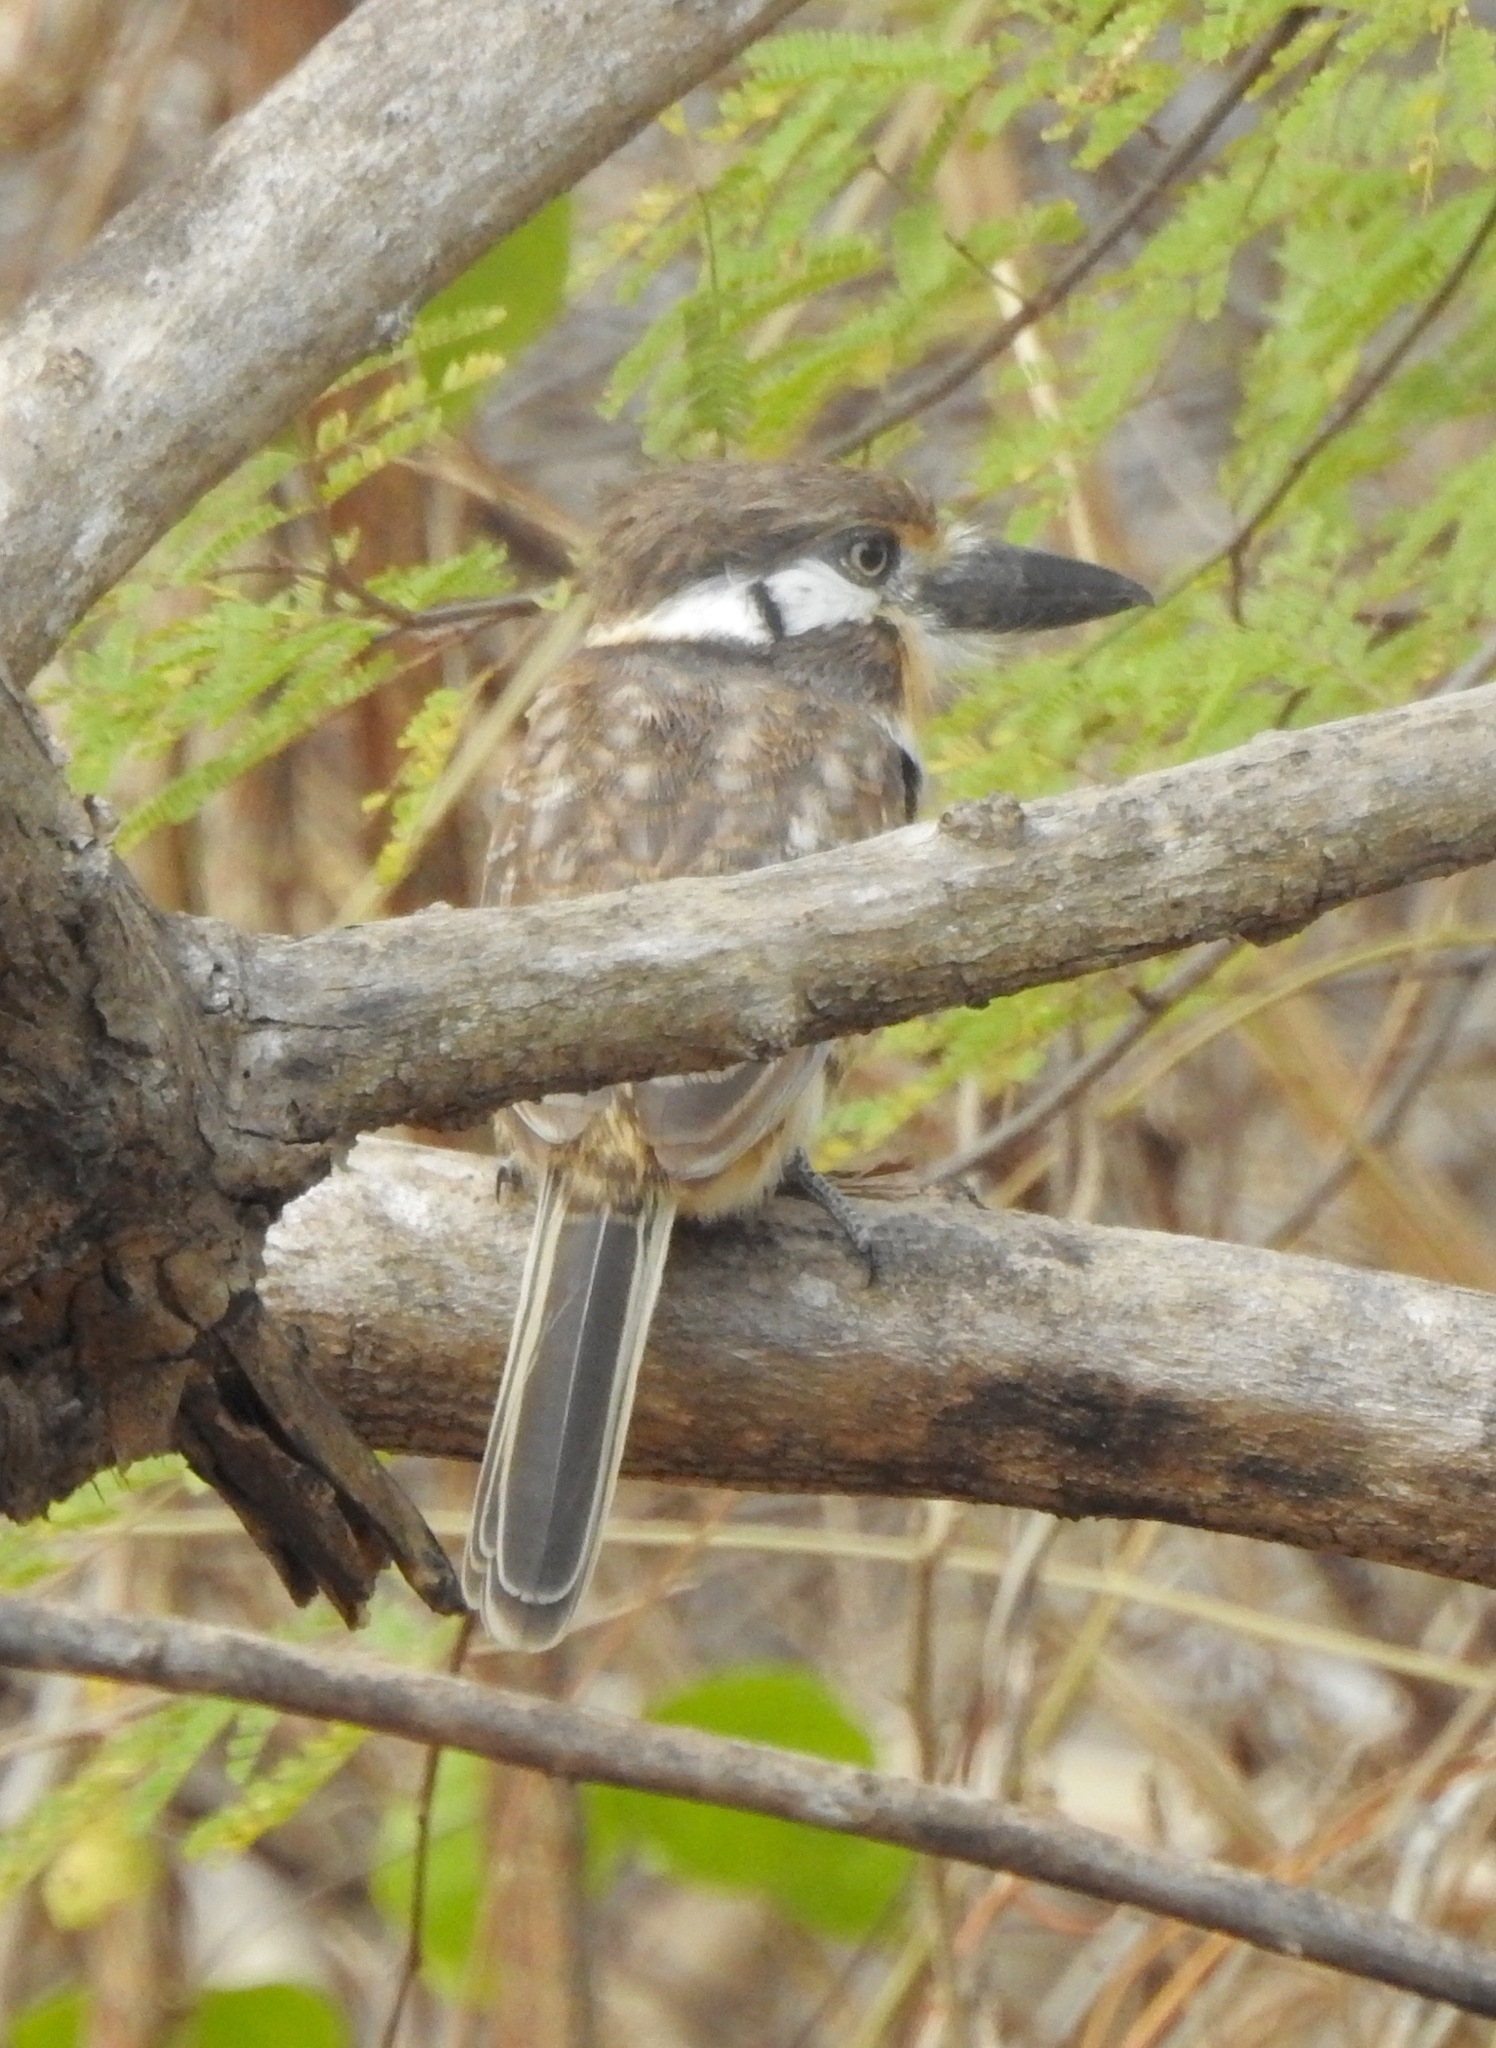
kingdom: Animalia
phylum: Chordata
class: Aves
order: Piciformes
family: Bucconidae
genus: Hypnelus
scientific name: Hypnelus ruficollis
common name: Russet-throated puffbird
